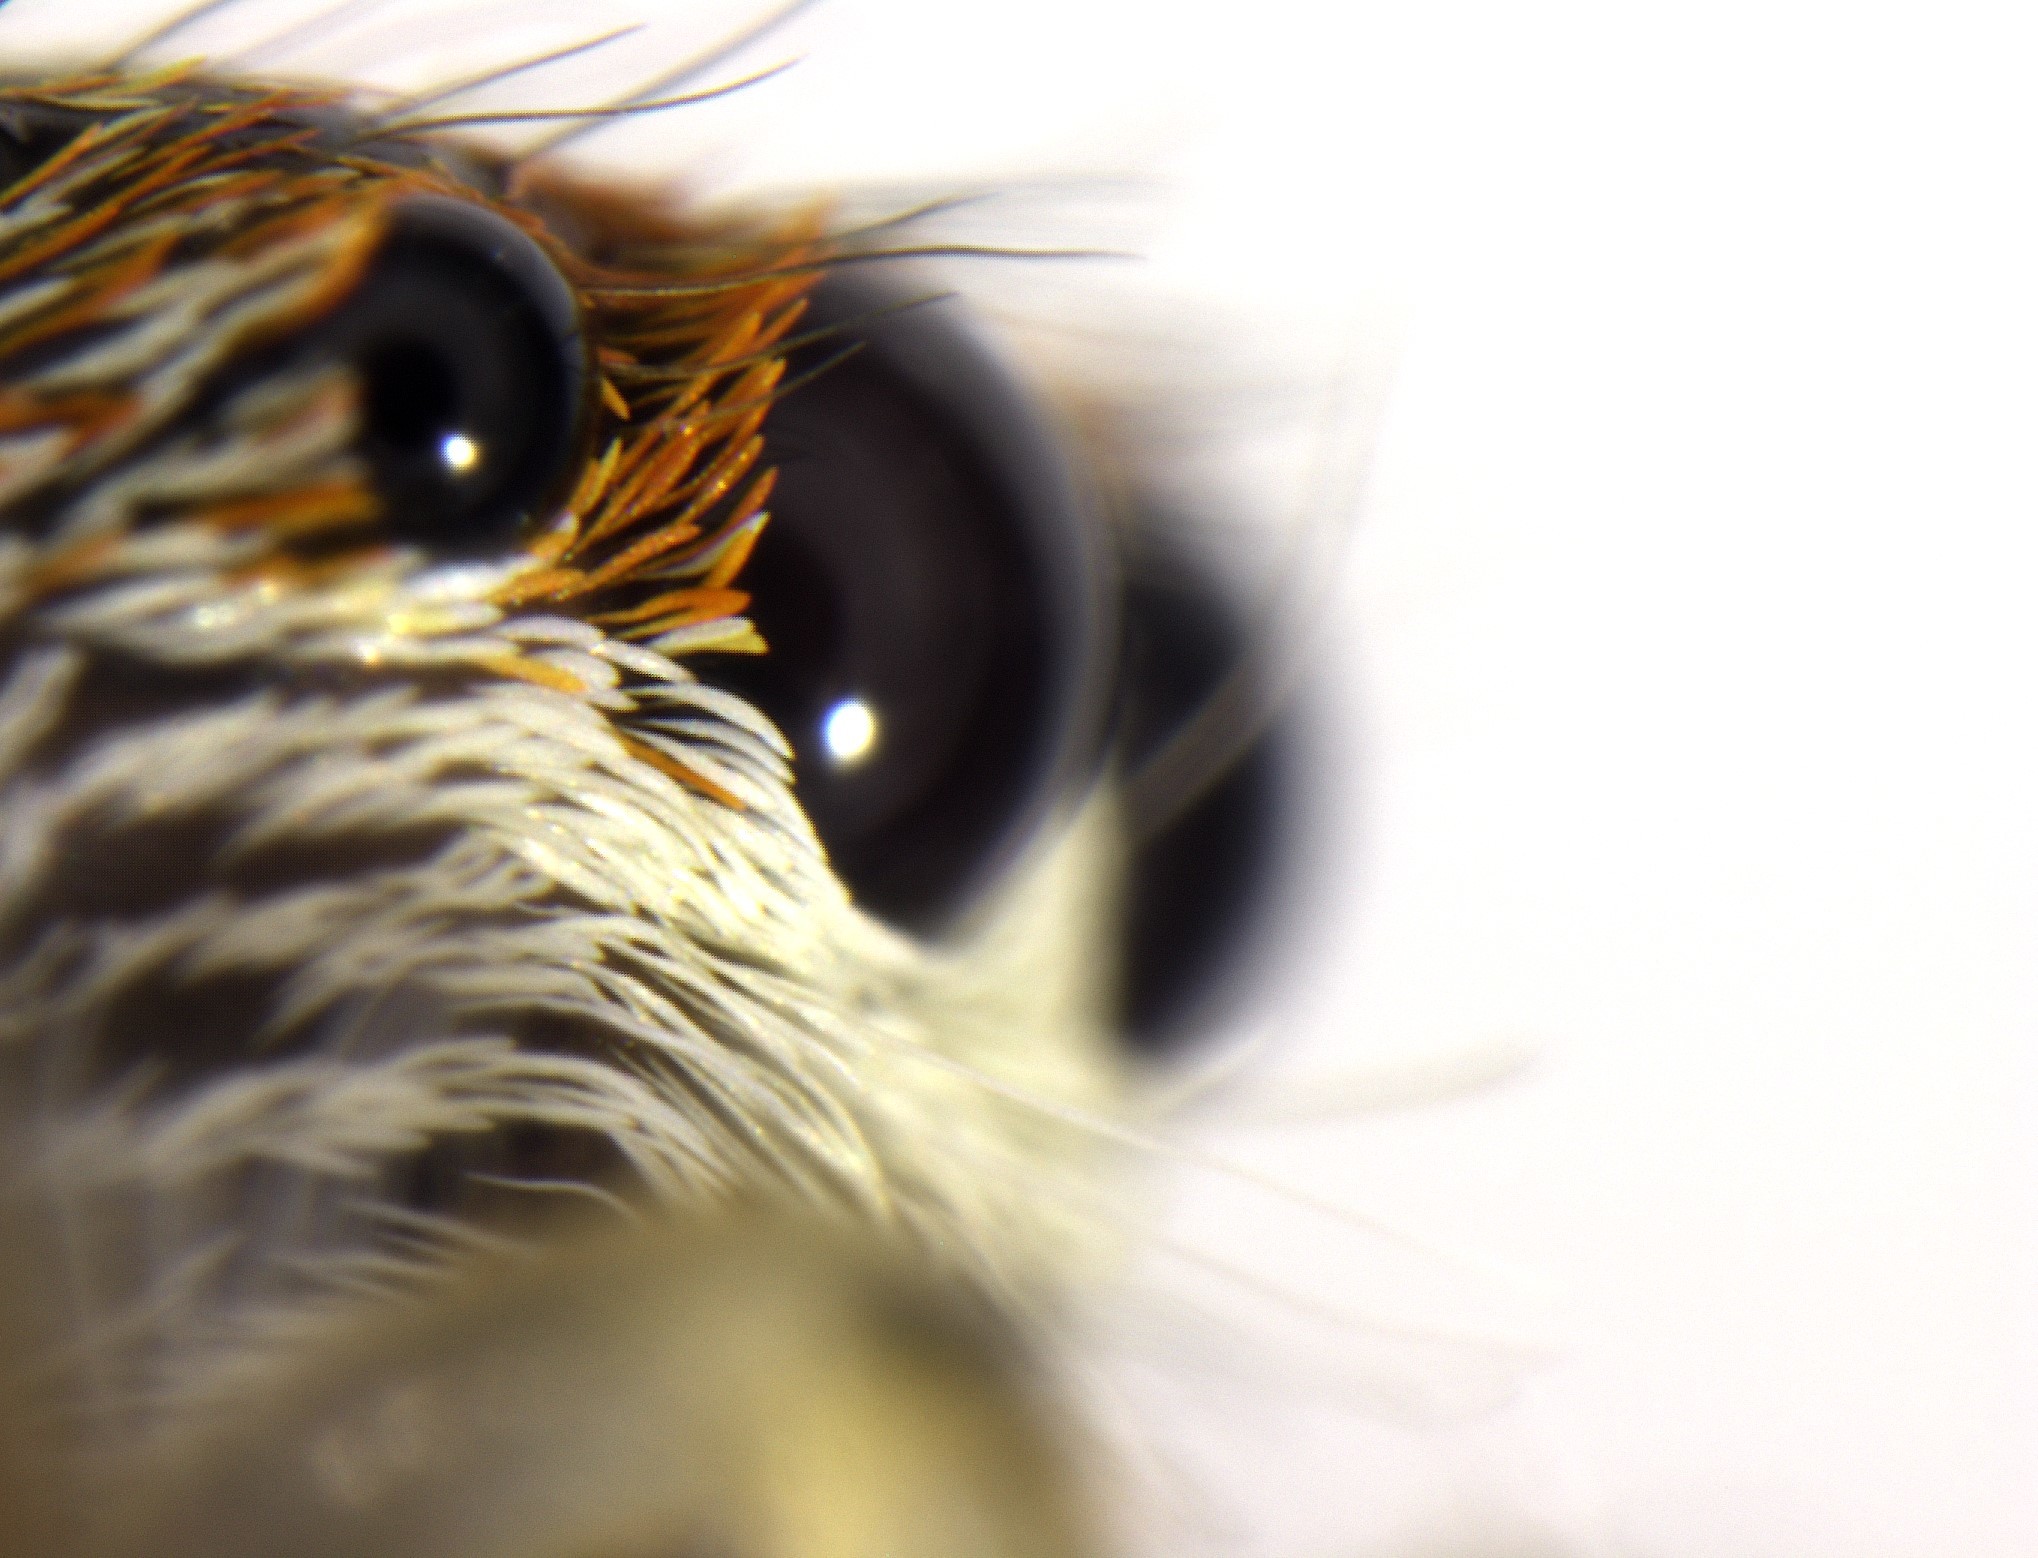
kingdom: Animalia
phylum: Arthropoda
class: Arachnida
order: Araneae
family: Salticidae
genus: Opisthoncus
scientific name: Opisthoncus polyphemus
